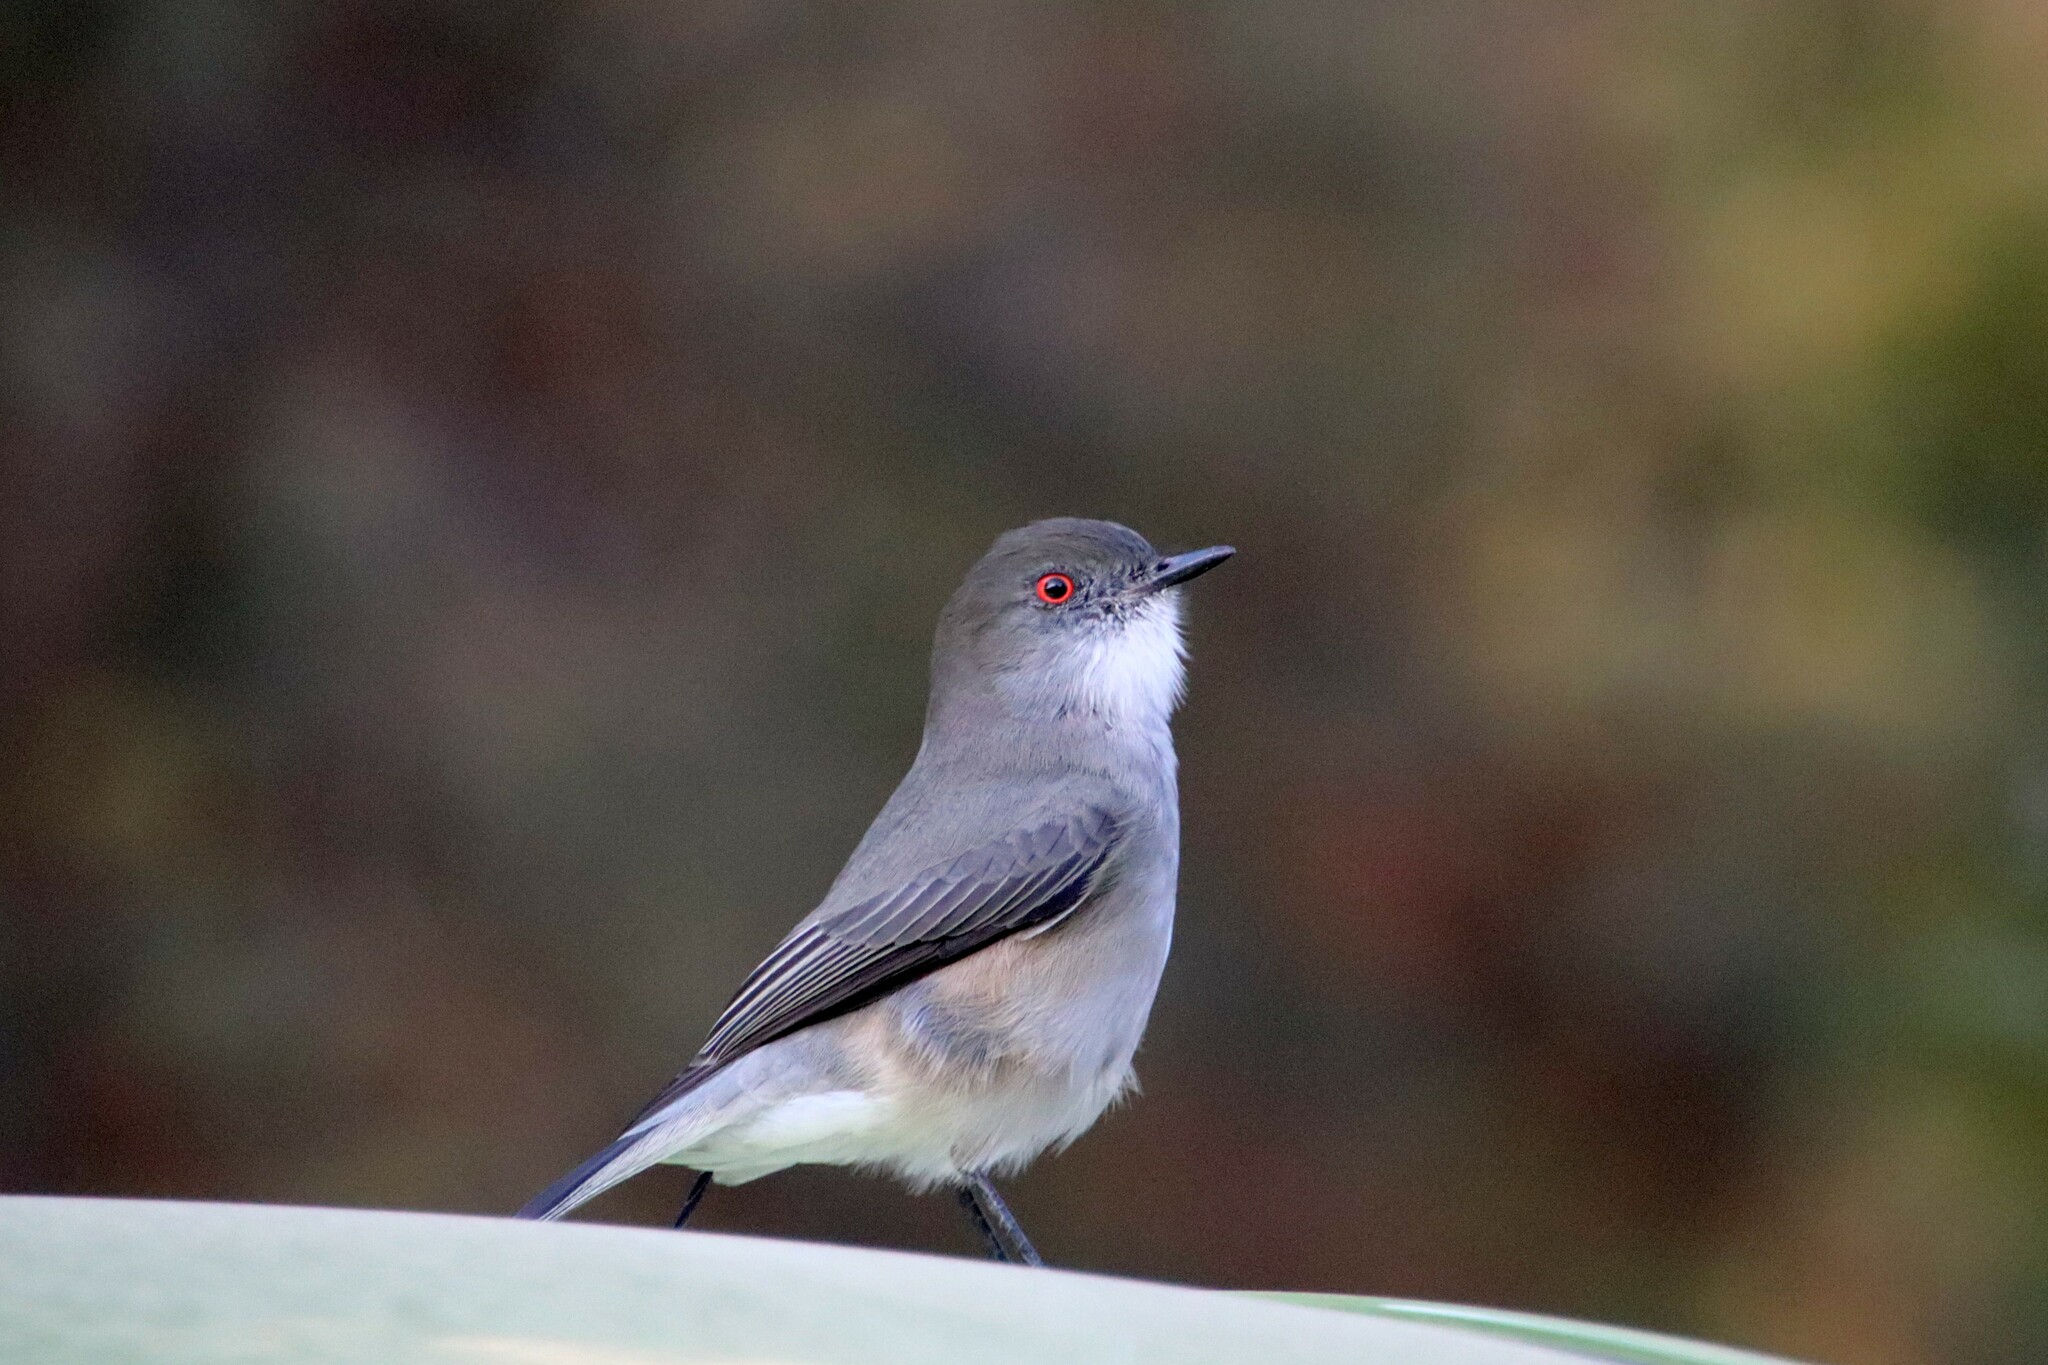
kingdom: Animalia
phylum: Chordata
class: Aves
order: Passeriformes
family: Tyrannidae
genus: Xolmis
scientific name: Xolmis pyrope
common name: Fire-eyed diucon
